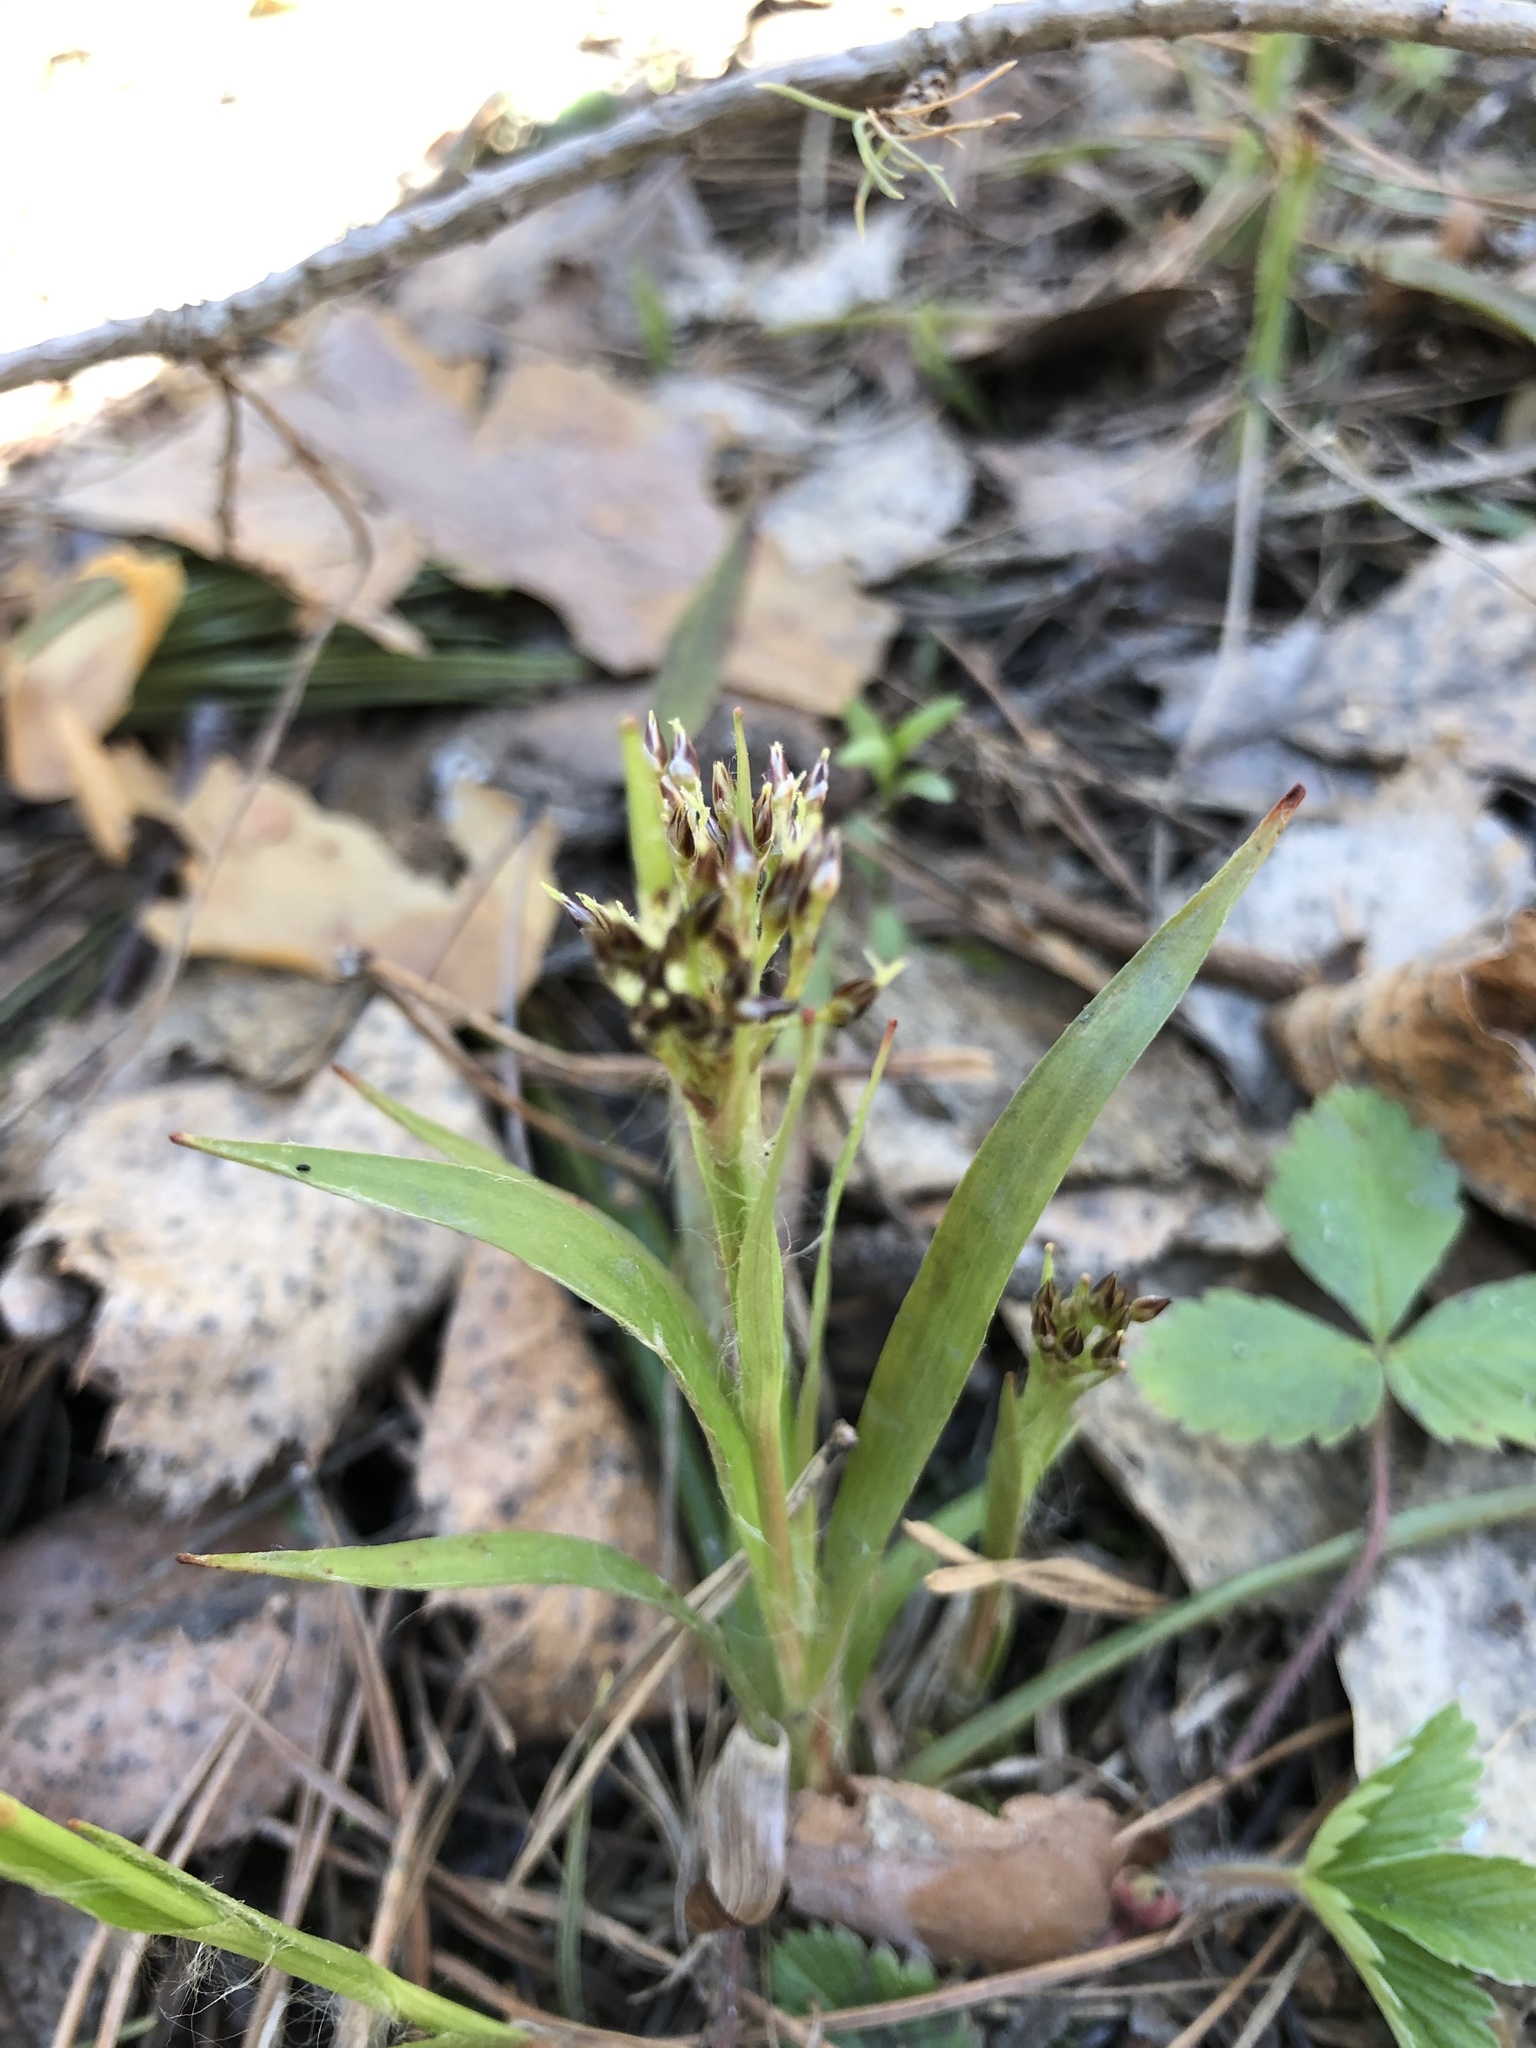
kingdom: Plantae
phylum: Tracheophyta
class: Liliopsida
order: Poales
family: Juncaceae
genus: Luzula
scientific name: Luzula pilosa
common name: Hairy wood-rush
